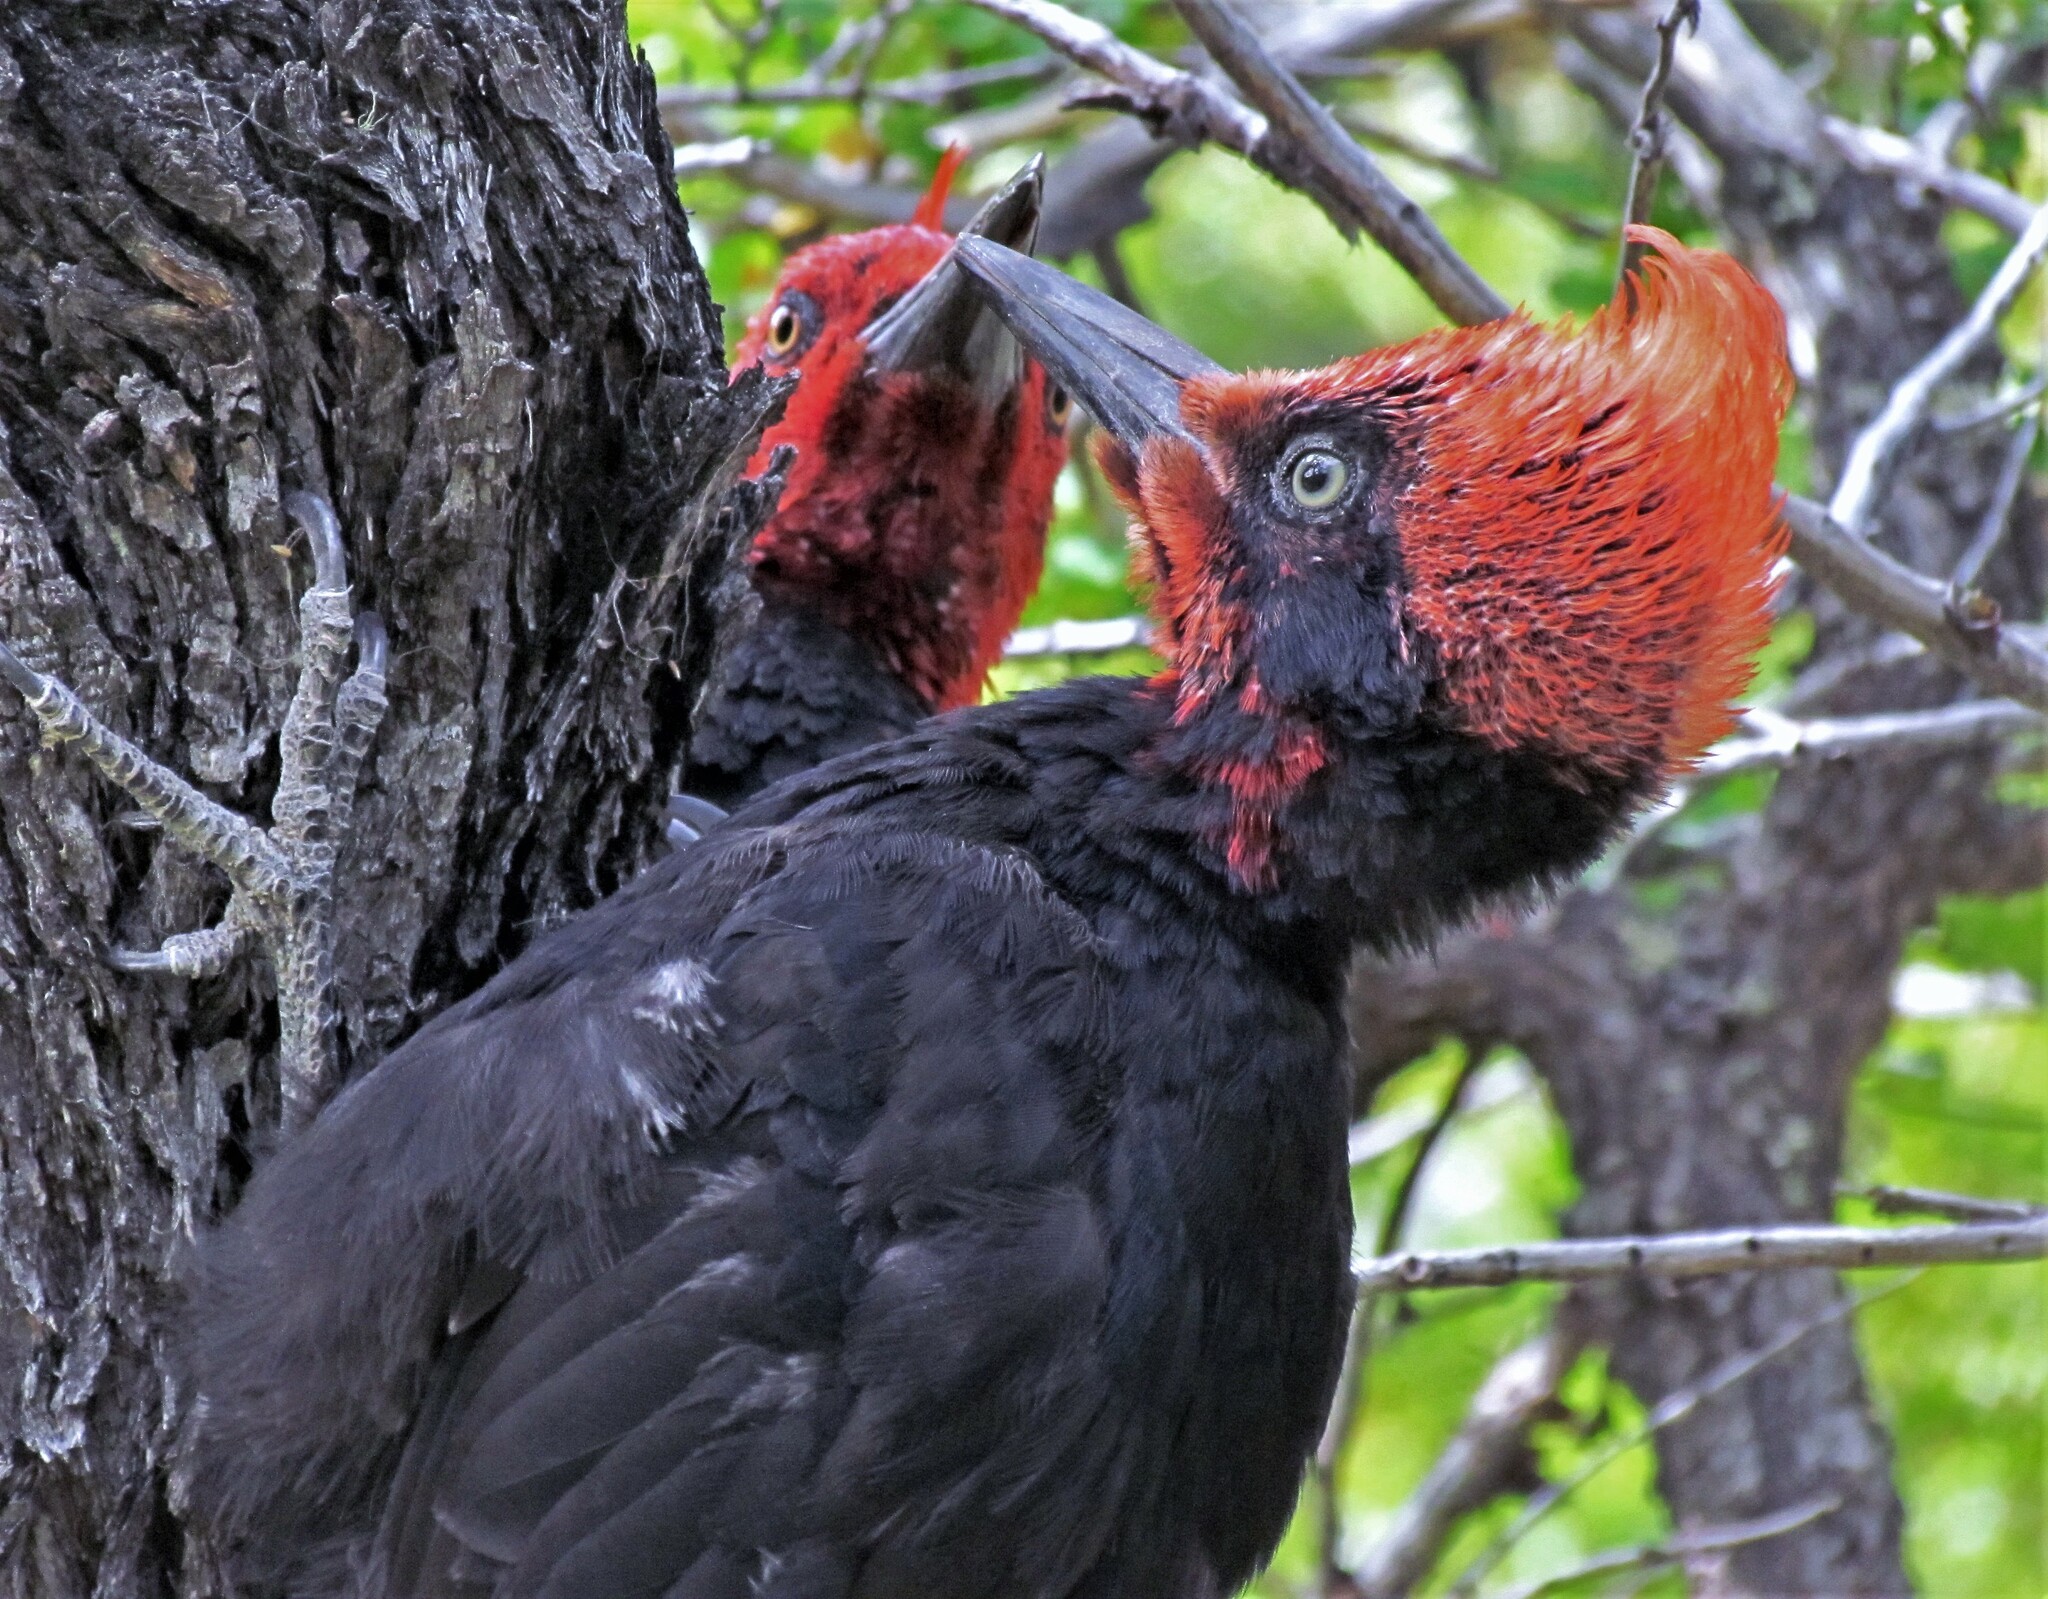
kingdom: Animalia
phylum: Chordata
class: Aves
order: Piciformes
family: Picidae
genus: Campephilus
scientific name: Campephilus magellanicus
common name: Magellanic woodpecker
